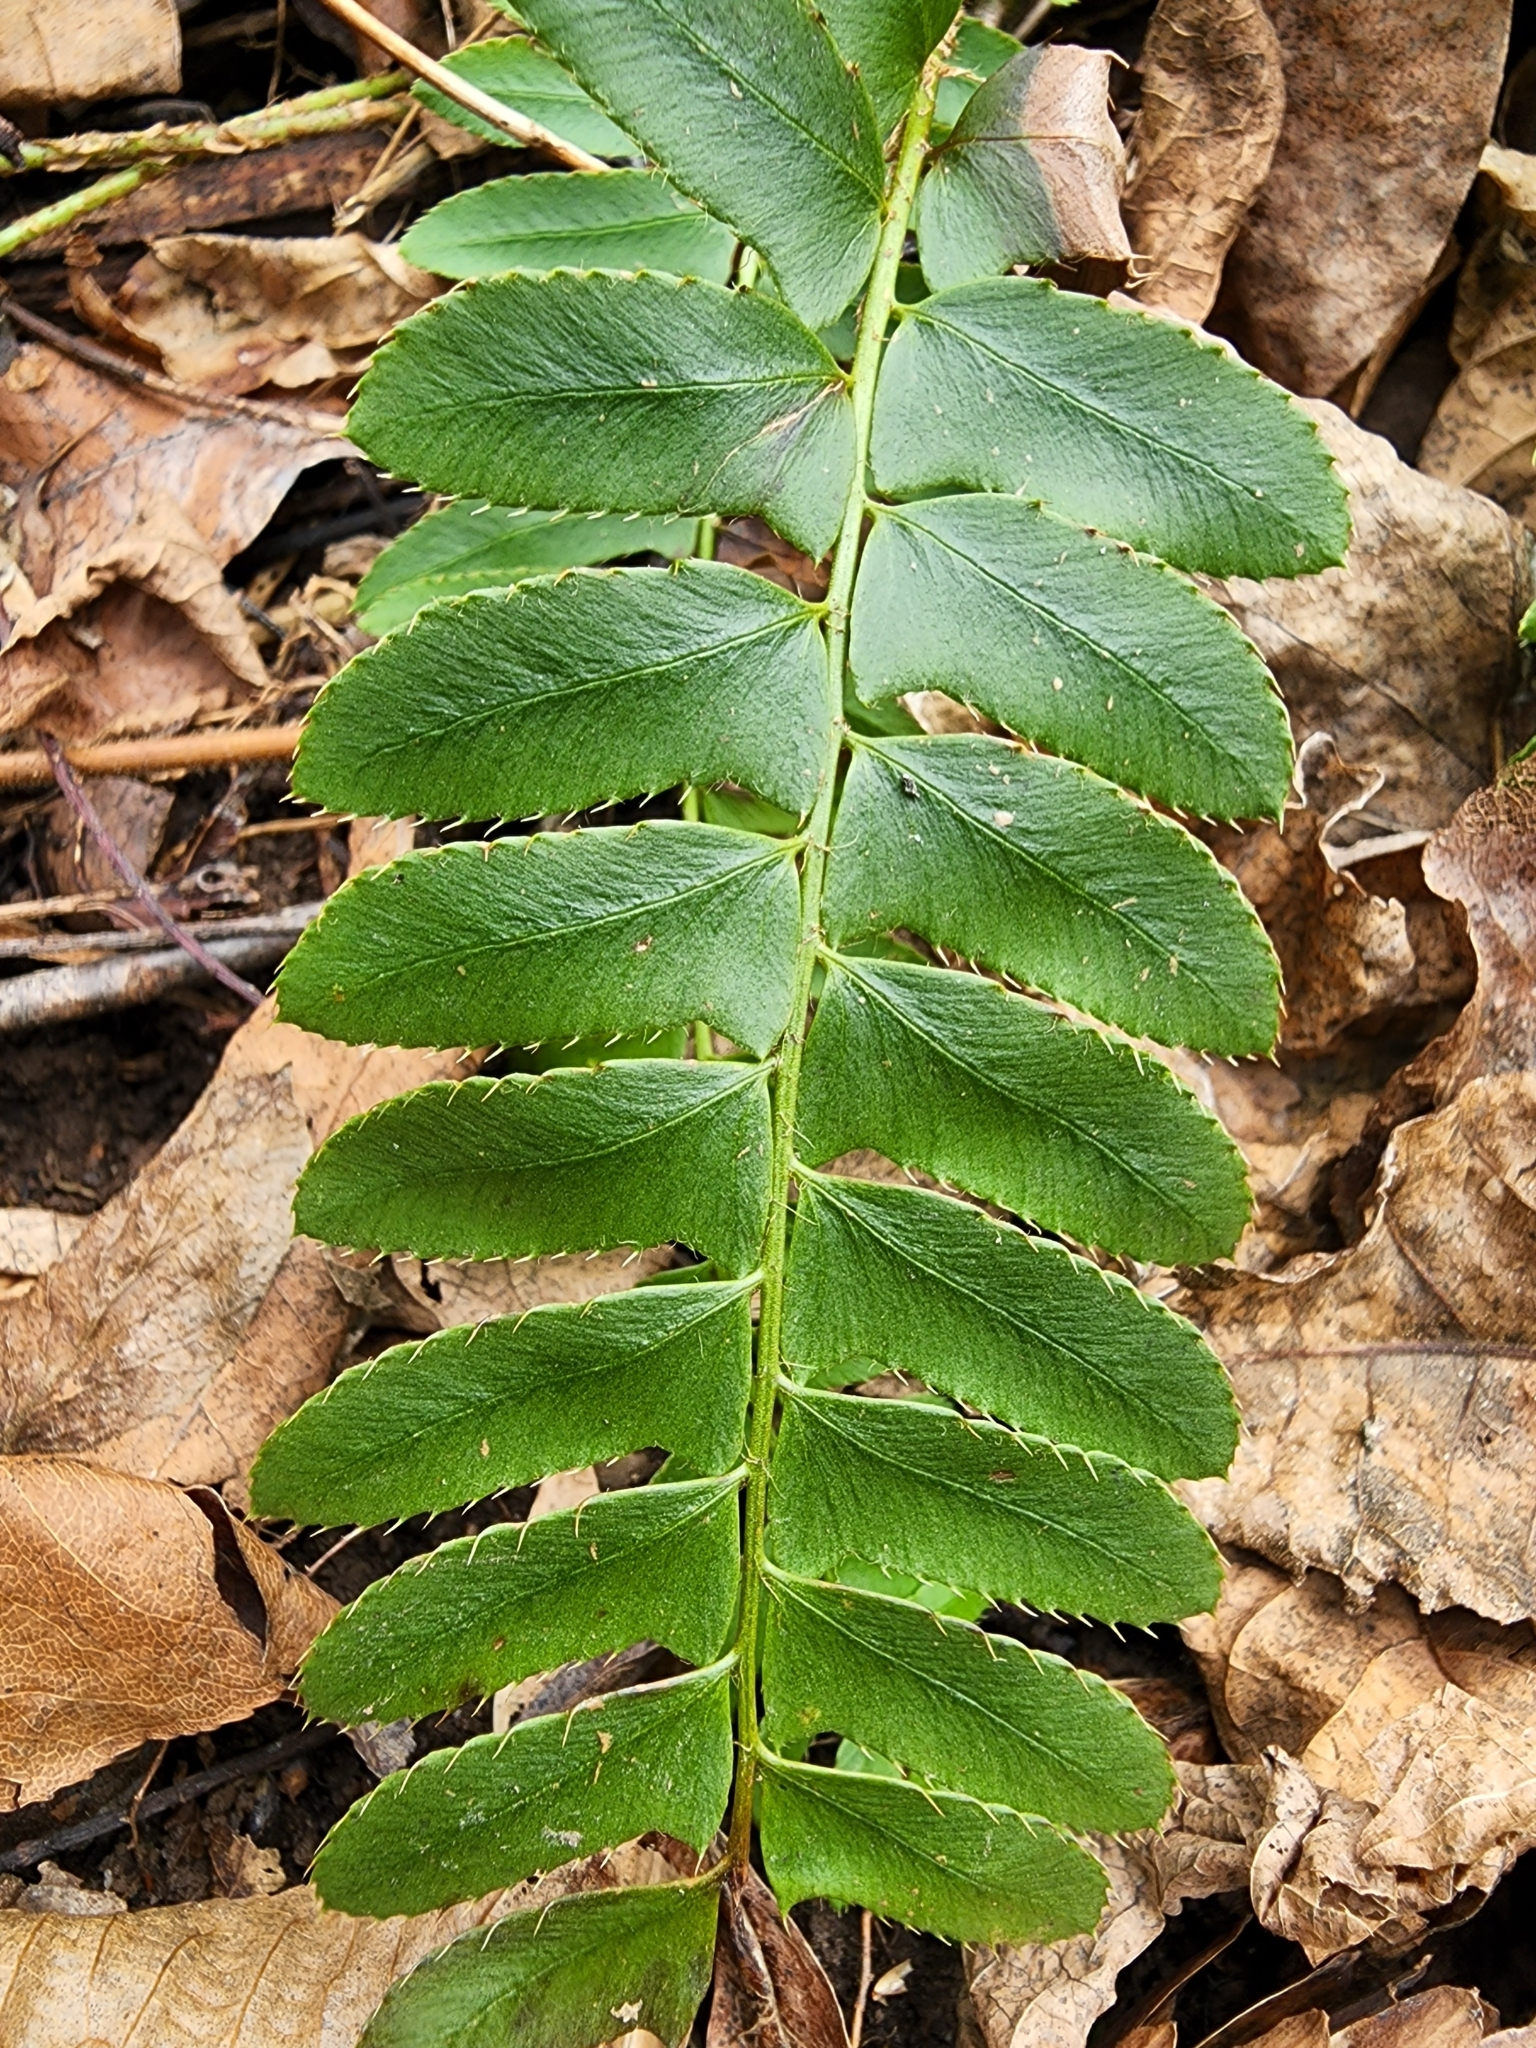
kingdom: Plantae
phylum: Tracheophyta
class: Polypodiopsida
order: Polypodiales
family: Dryopteridaceae
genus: Polystichum
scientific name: Polystichum acrostichoides
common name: Christmas fern
